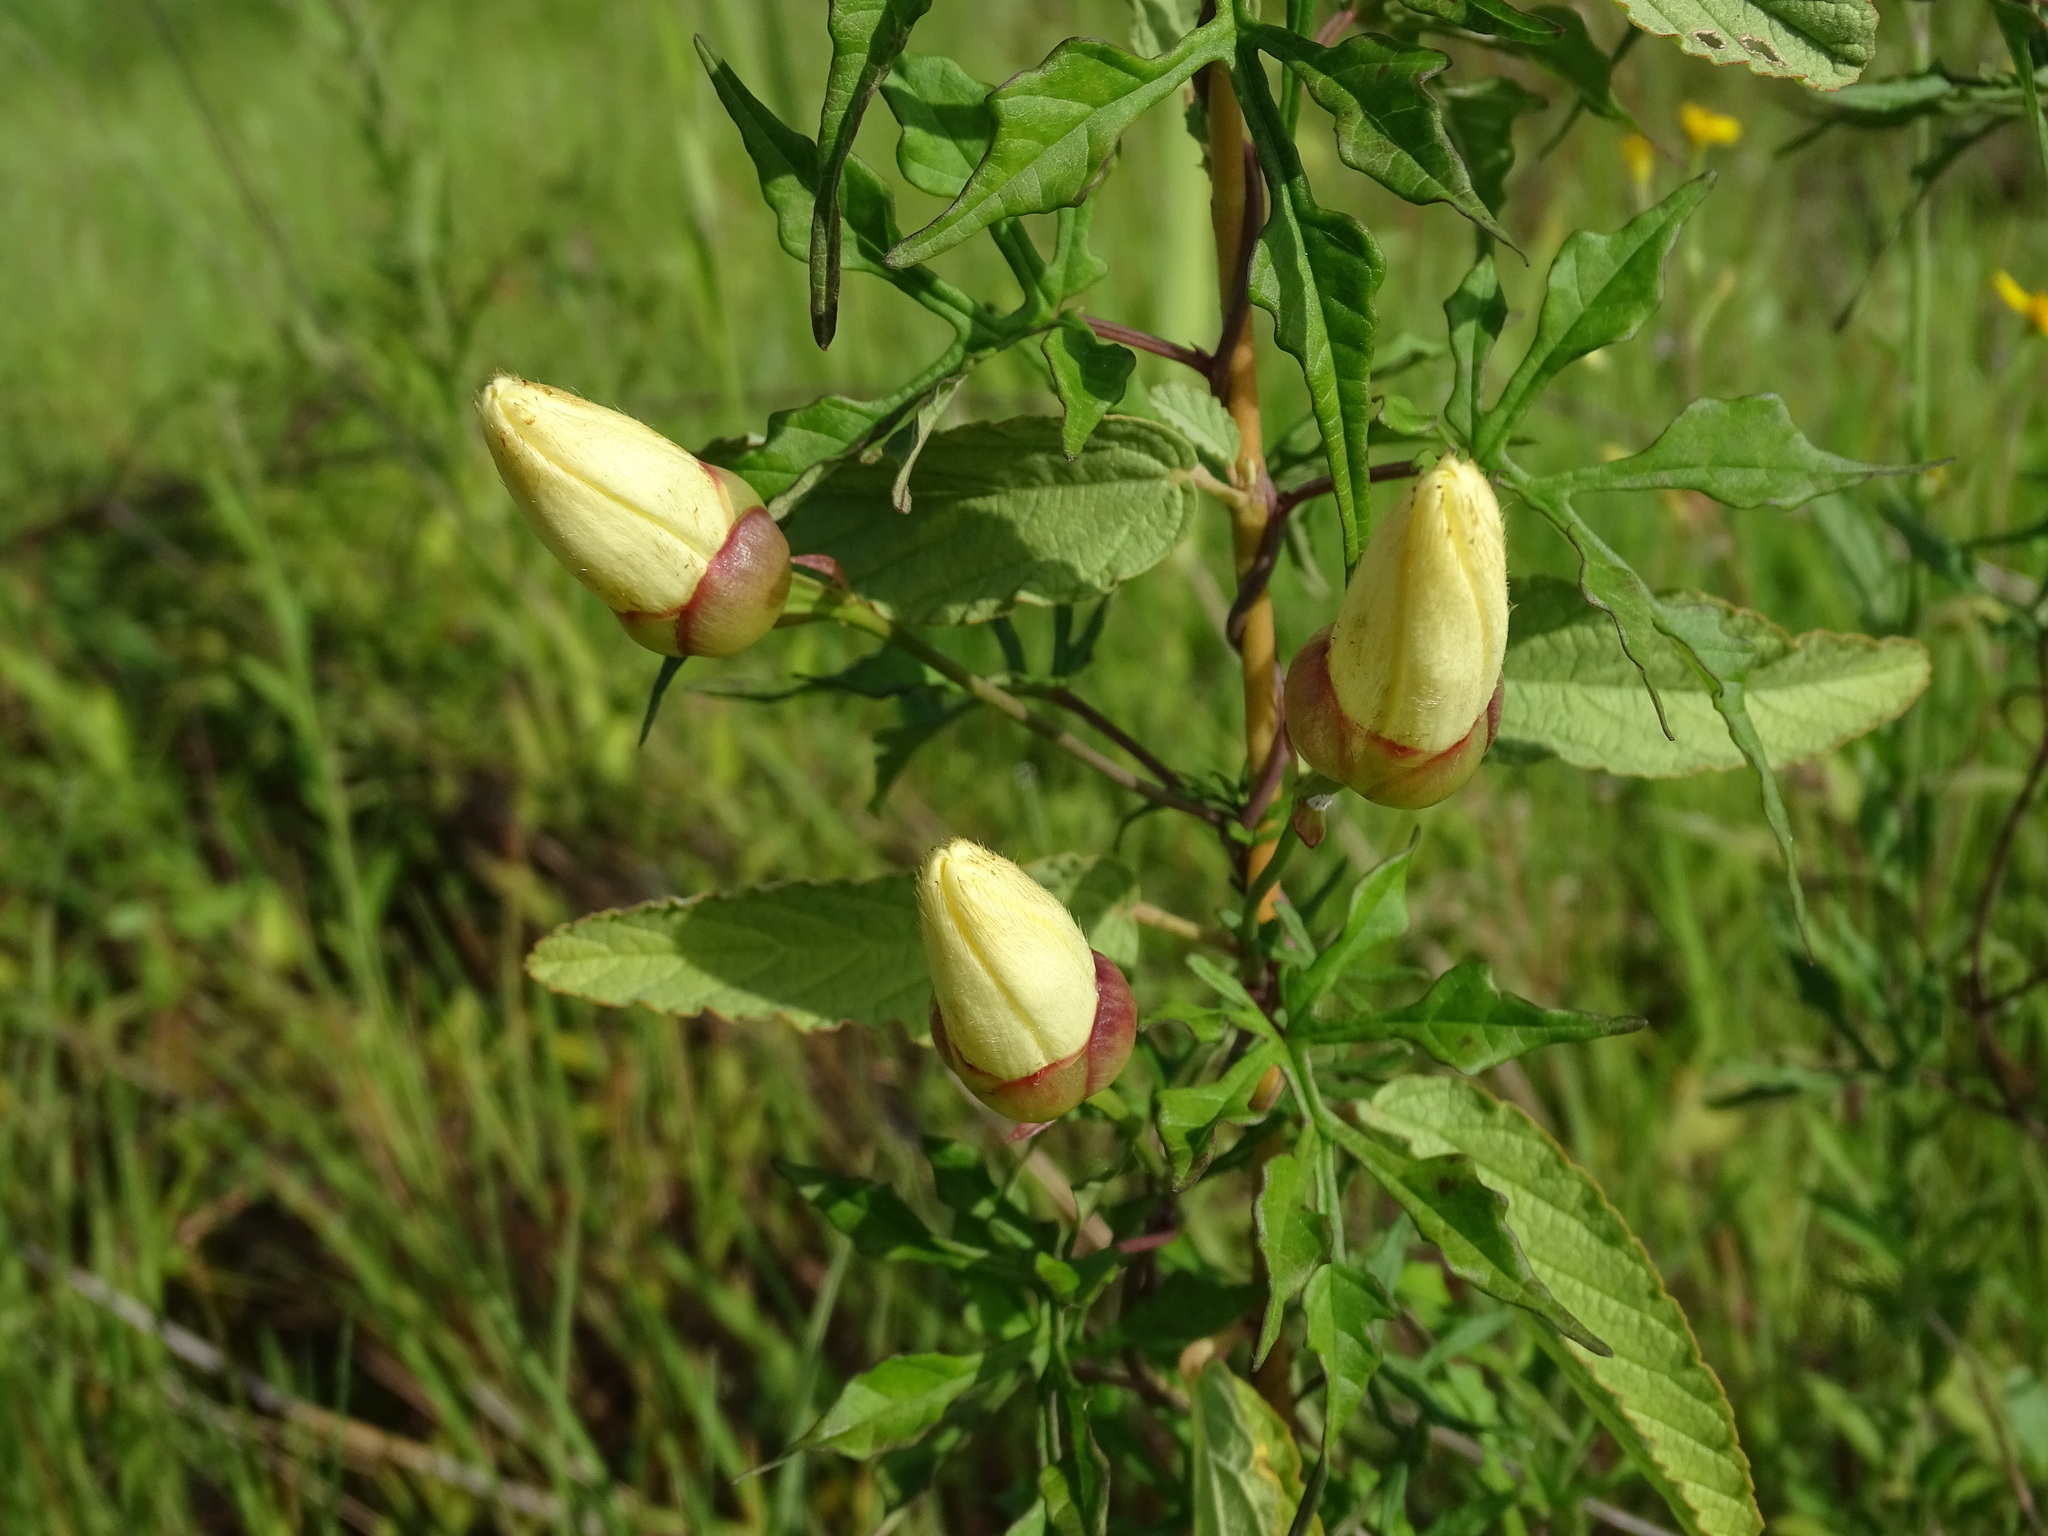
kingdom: Plantae
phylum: Tracheophyta
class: Magnoliopsida
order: Solanales
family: Convolvulaceae
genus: Operculina
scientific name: Operculina pinnatifida
